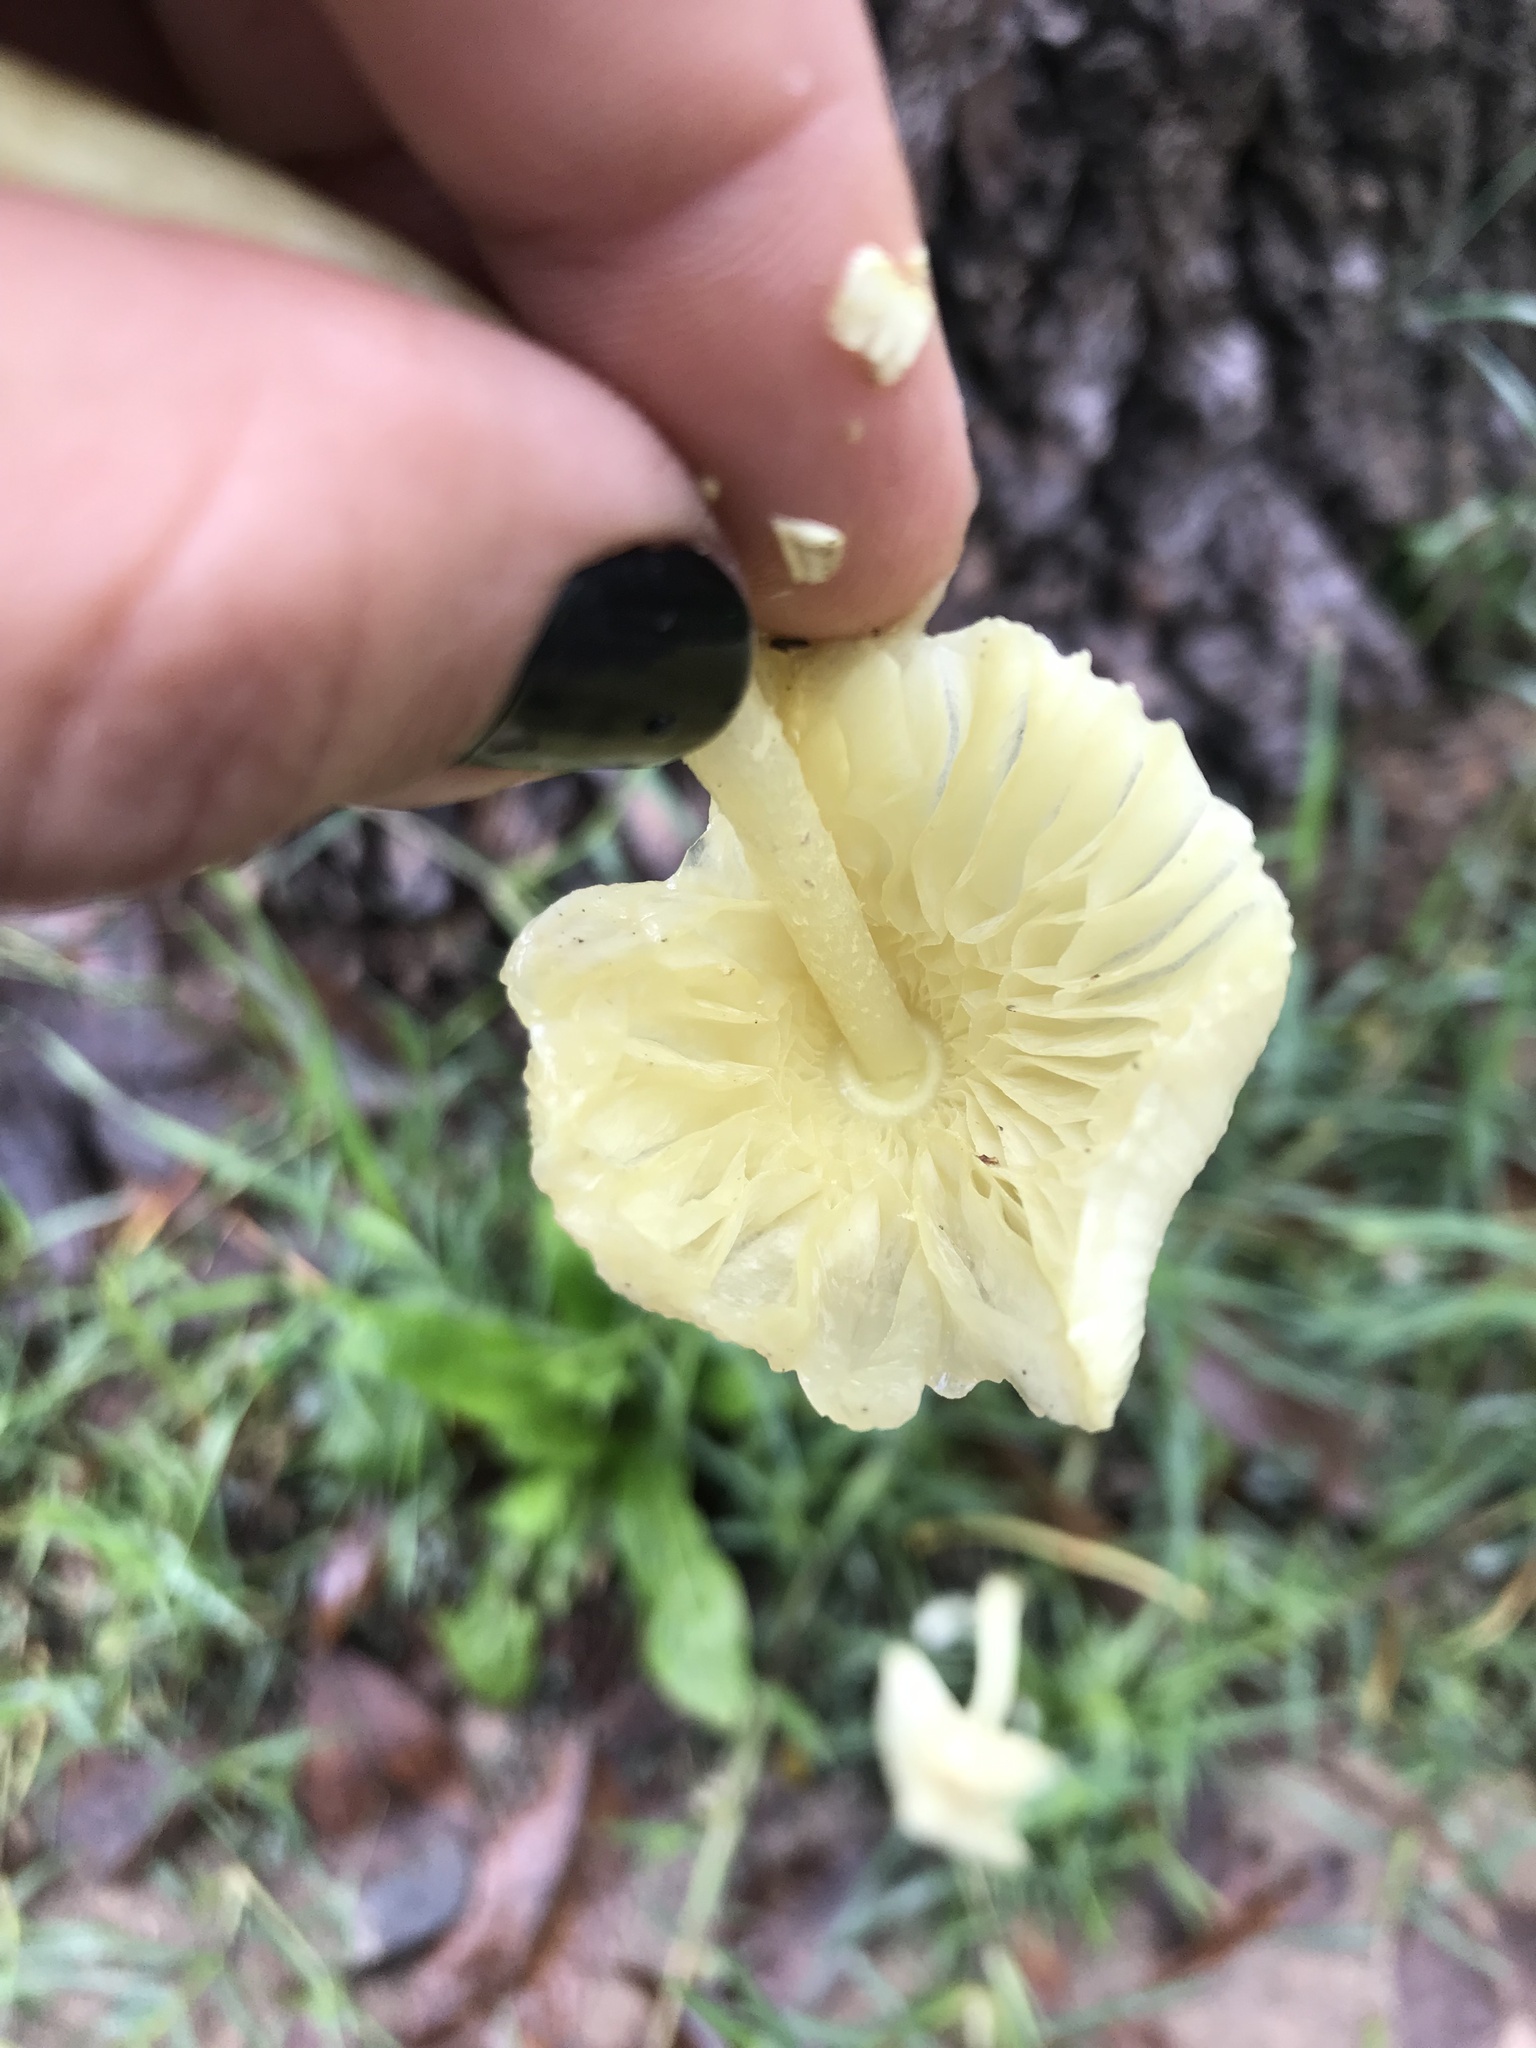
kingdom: Fungi
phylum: Basidiomycota
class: Agaricomycetes
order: Agaricales
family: Agaricaceae
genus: Leucocoprinus
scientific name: Leucocoprinus birnbaumii
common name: Plantpot dapperling
